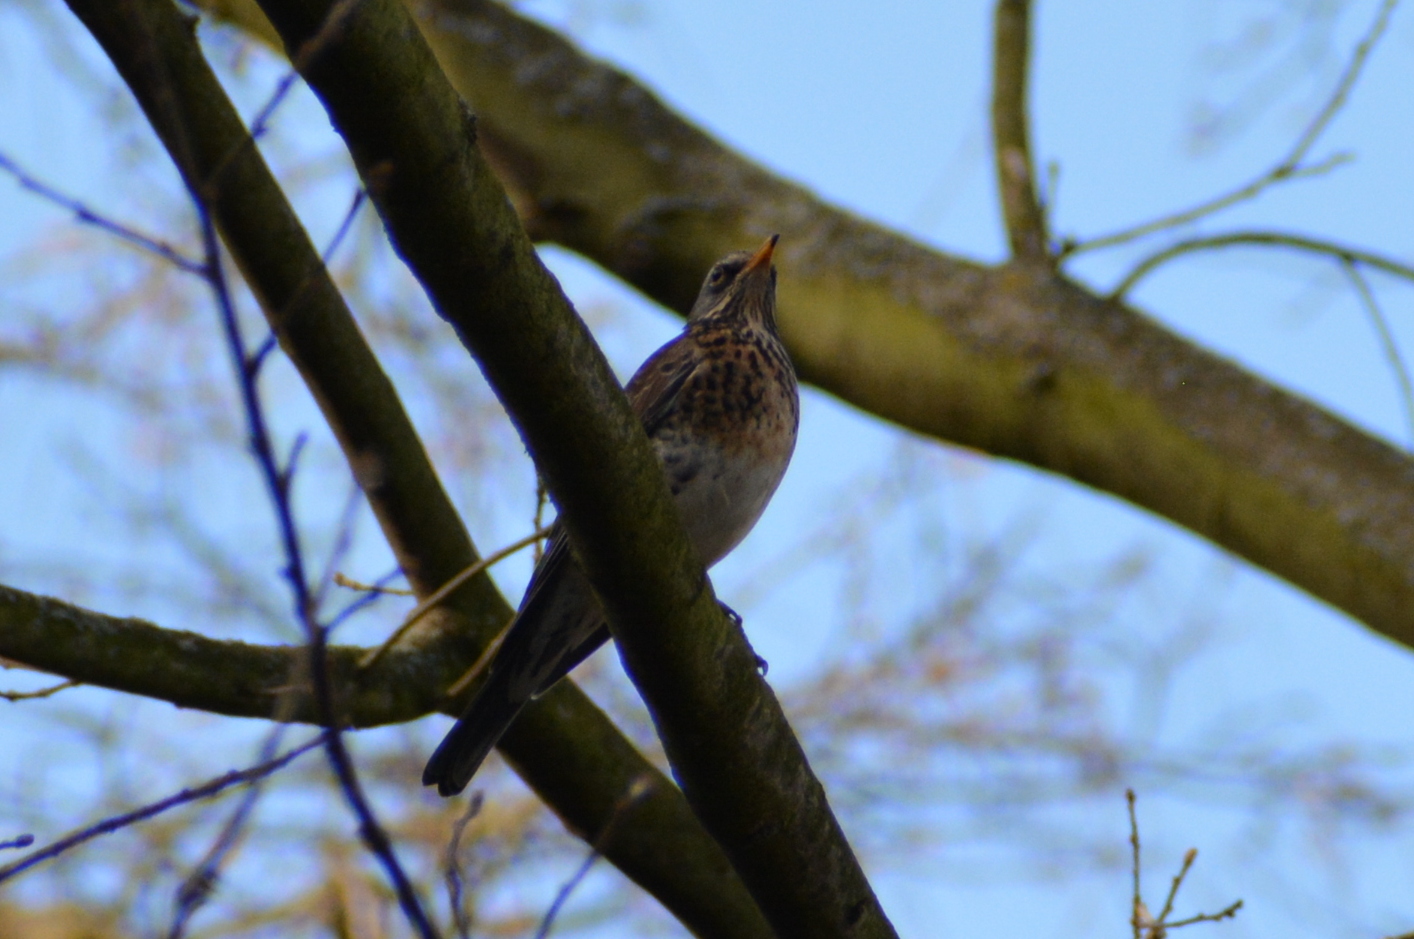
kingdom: Animalia
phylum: Chordata
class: Aves
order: Passeriformes
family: Turdidae
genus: Turdus
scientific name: Turdus pilaris
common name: Fieldfare
